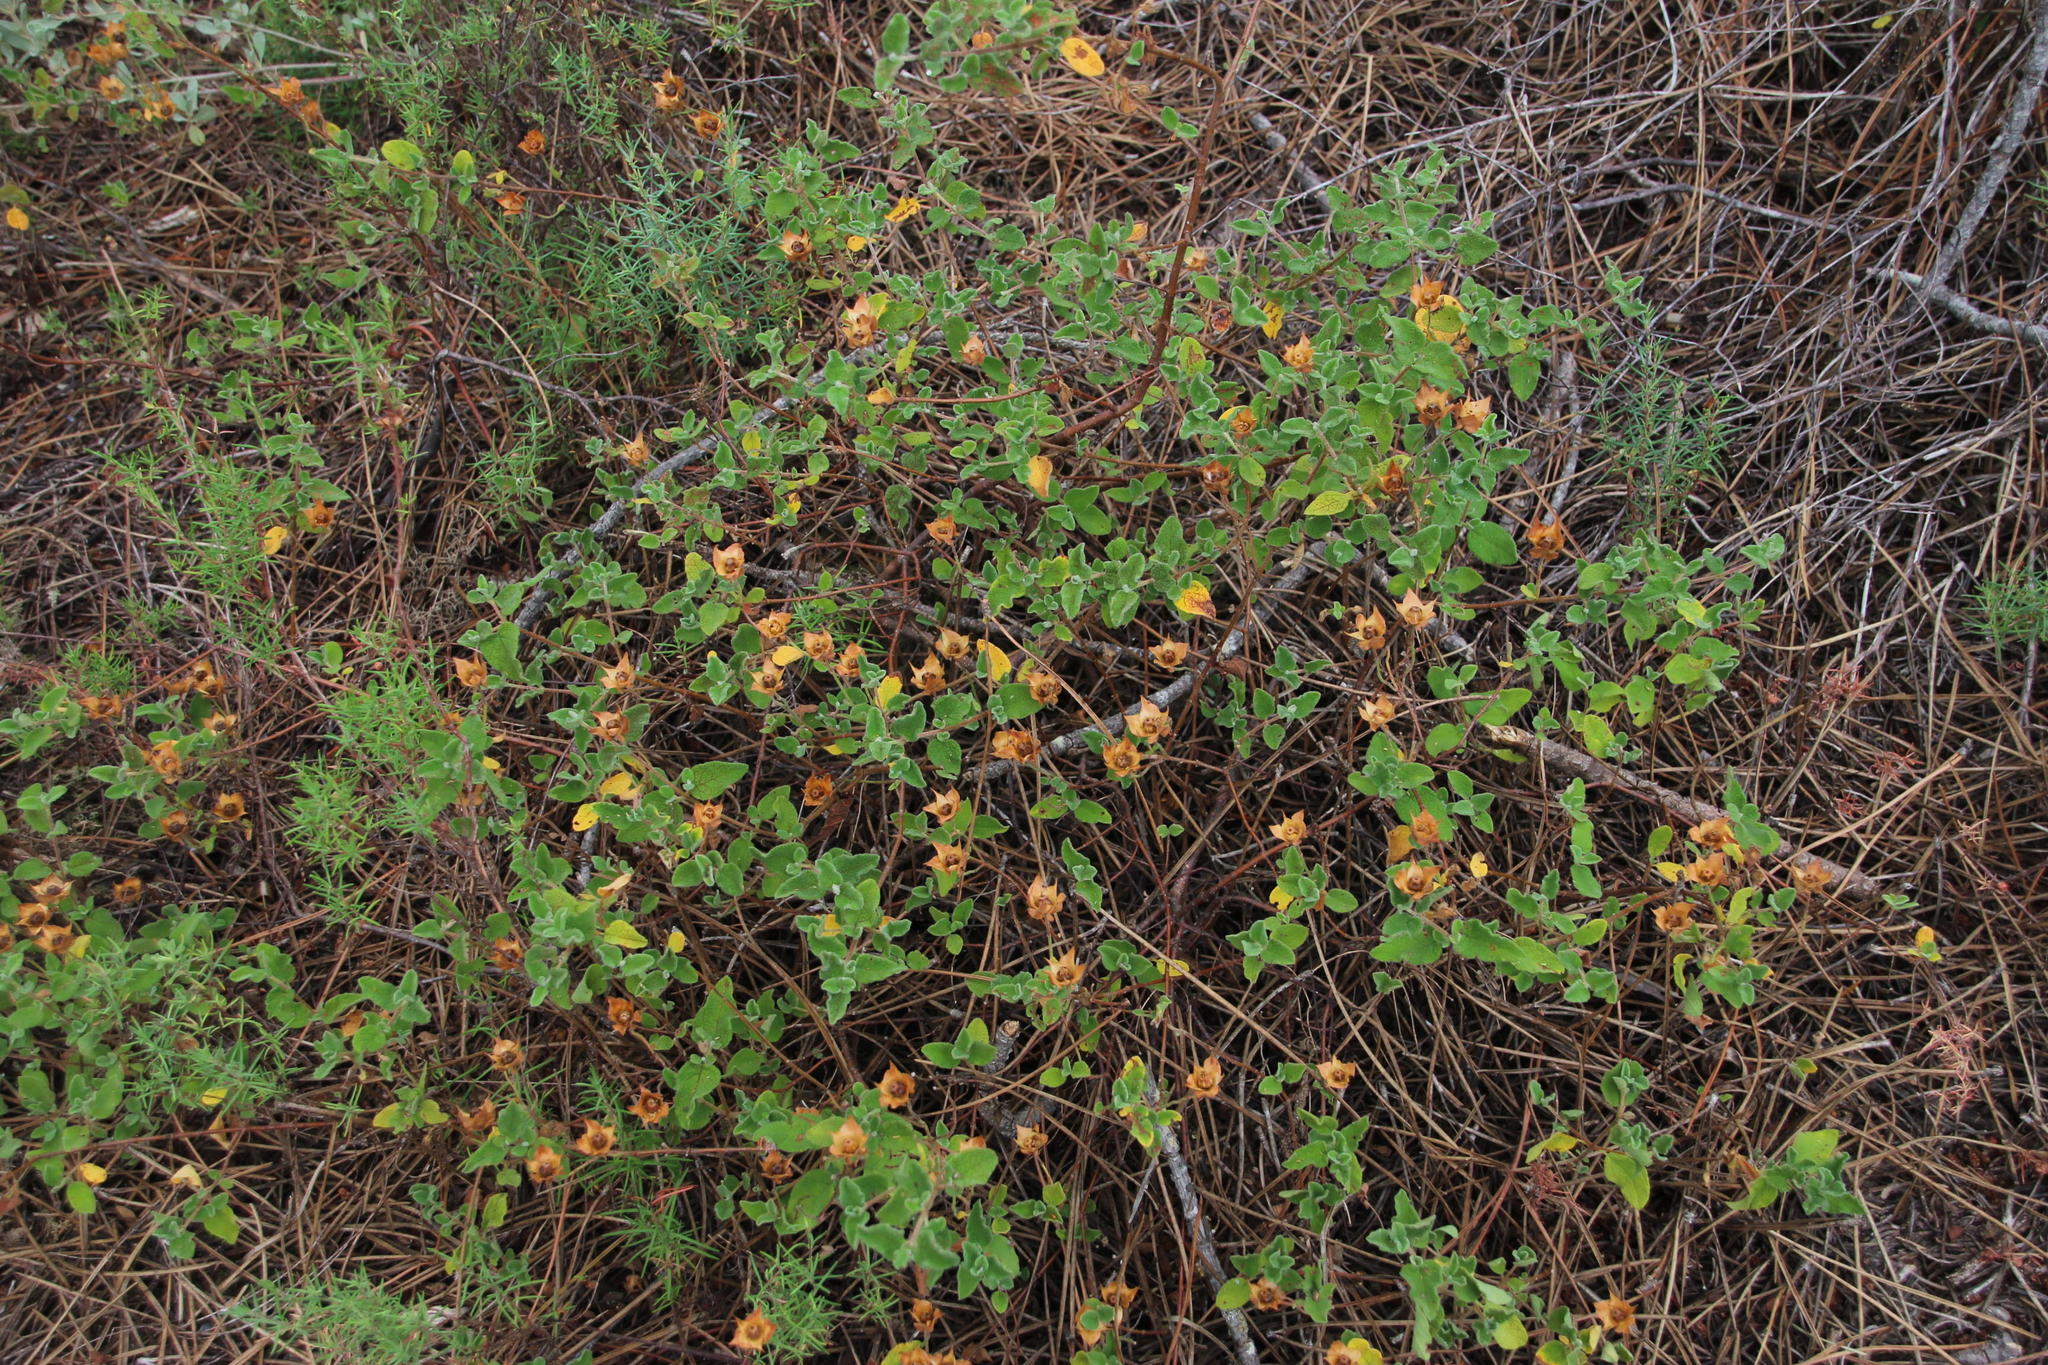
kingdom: Plantae
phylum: Tracheophyta
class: Magnoliopsida
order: Malvales
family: Cistaceae
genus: Cistus
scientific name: Cistus salviifolius
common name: Salvia cistus
